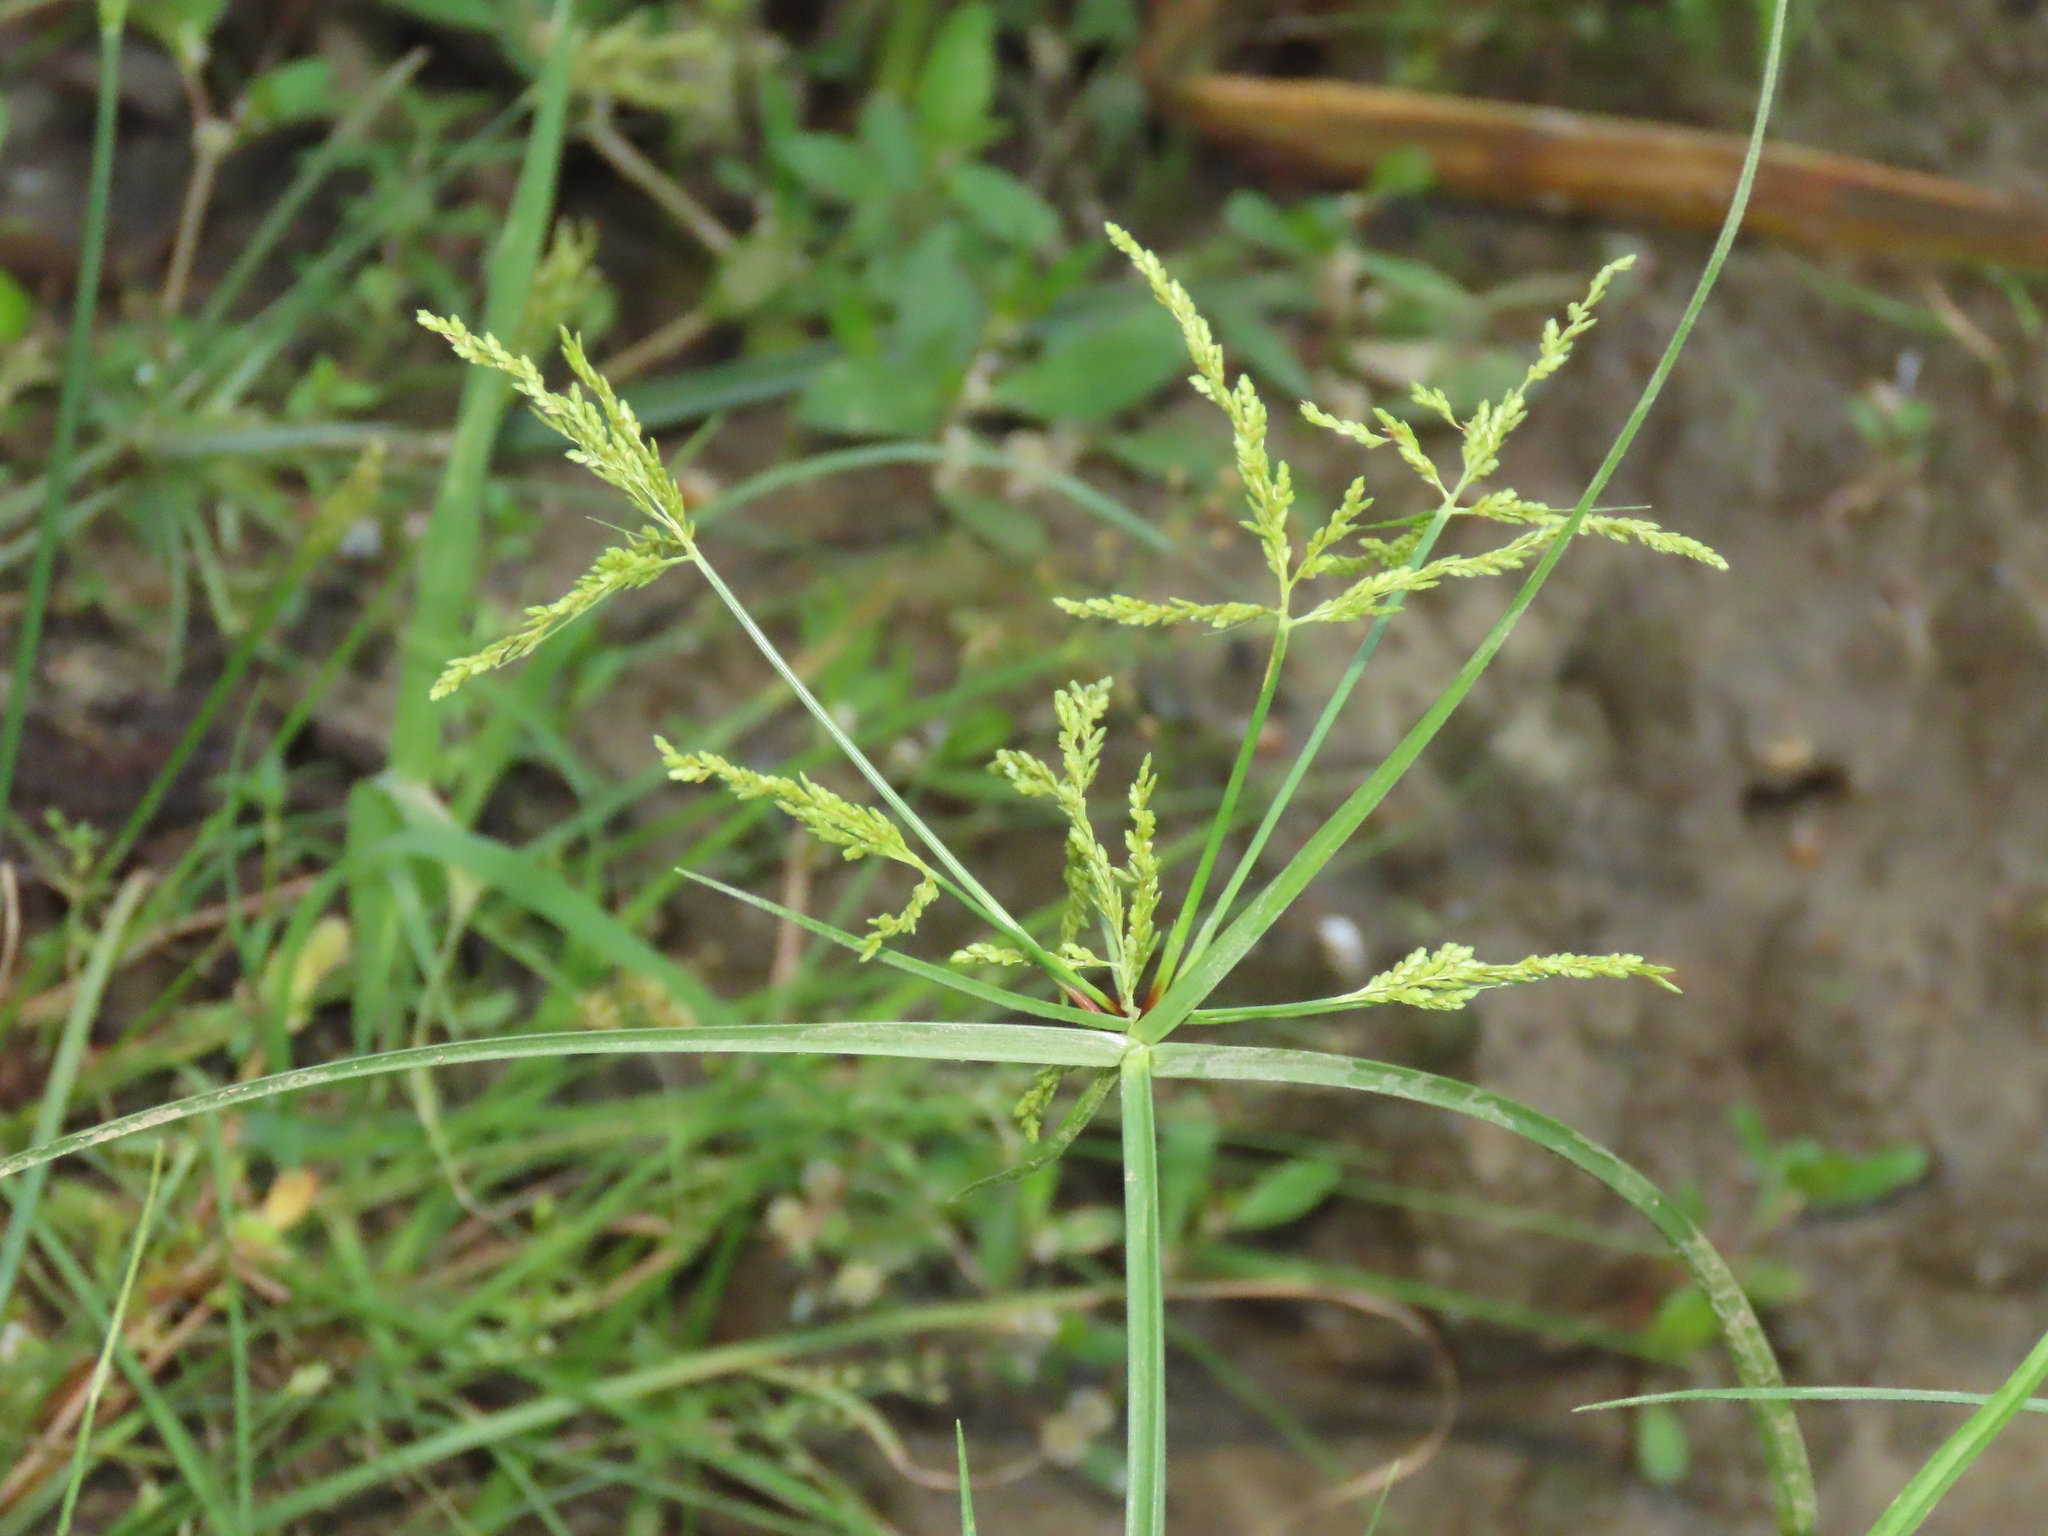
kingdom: Plantae
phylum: Tracheophyta
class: Liliopsida
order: Poales
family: Cyperaceae
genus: Cyperus
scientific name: Cyperus iria
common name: Ricefield flatsedge
